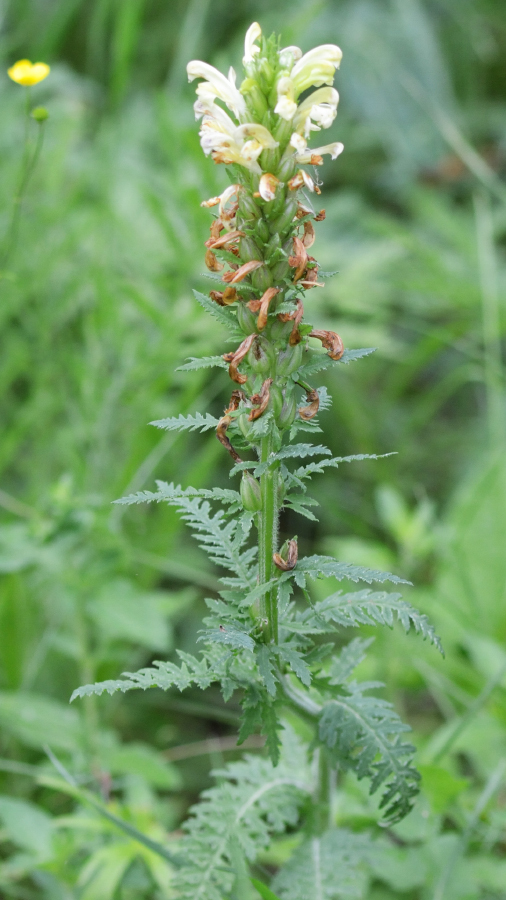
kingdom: Plantae
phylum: Tracheophyta
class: Magnoliopsida
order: Lamiales
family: Orobanchaceae
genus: Pedicularis
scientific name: Pedicularis kaufmannii
